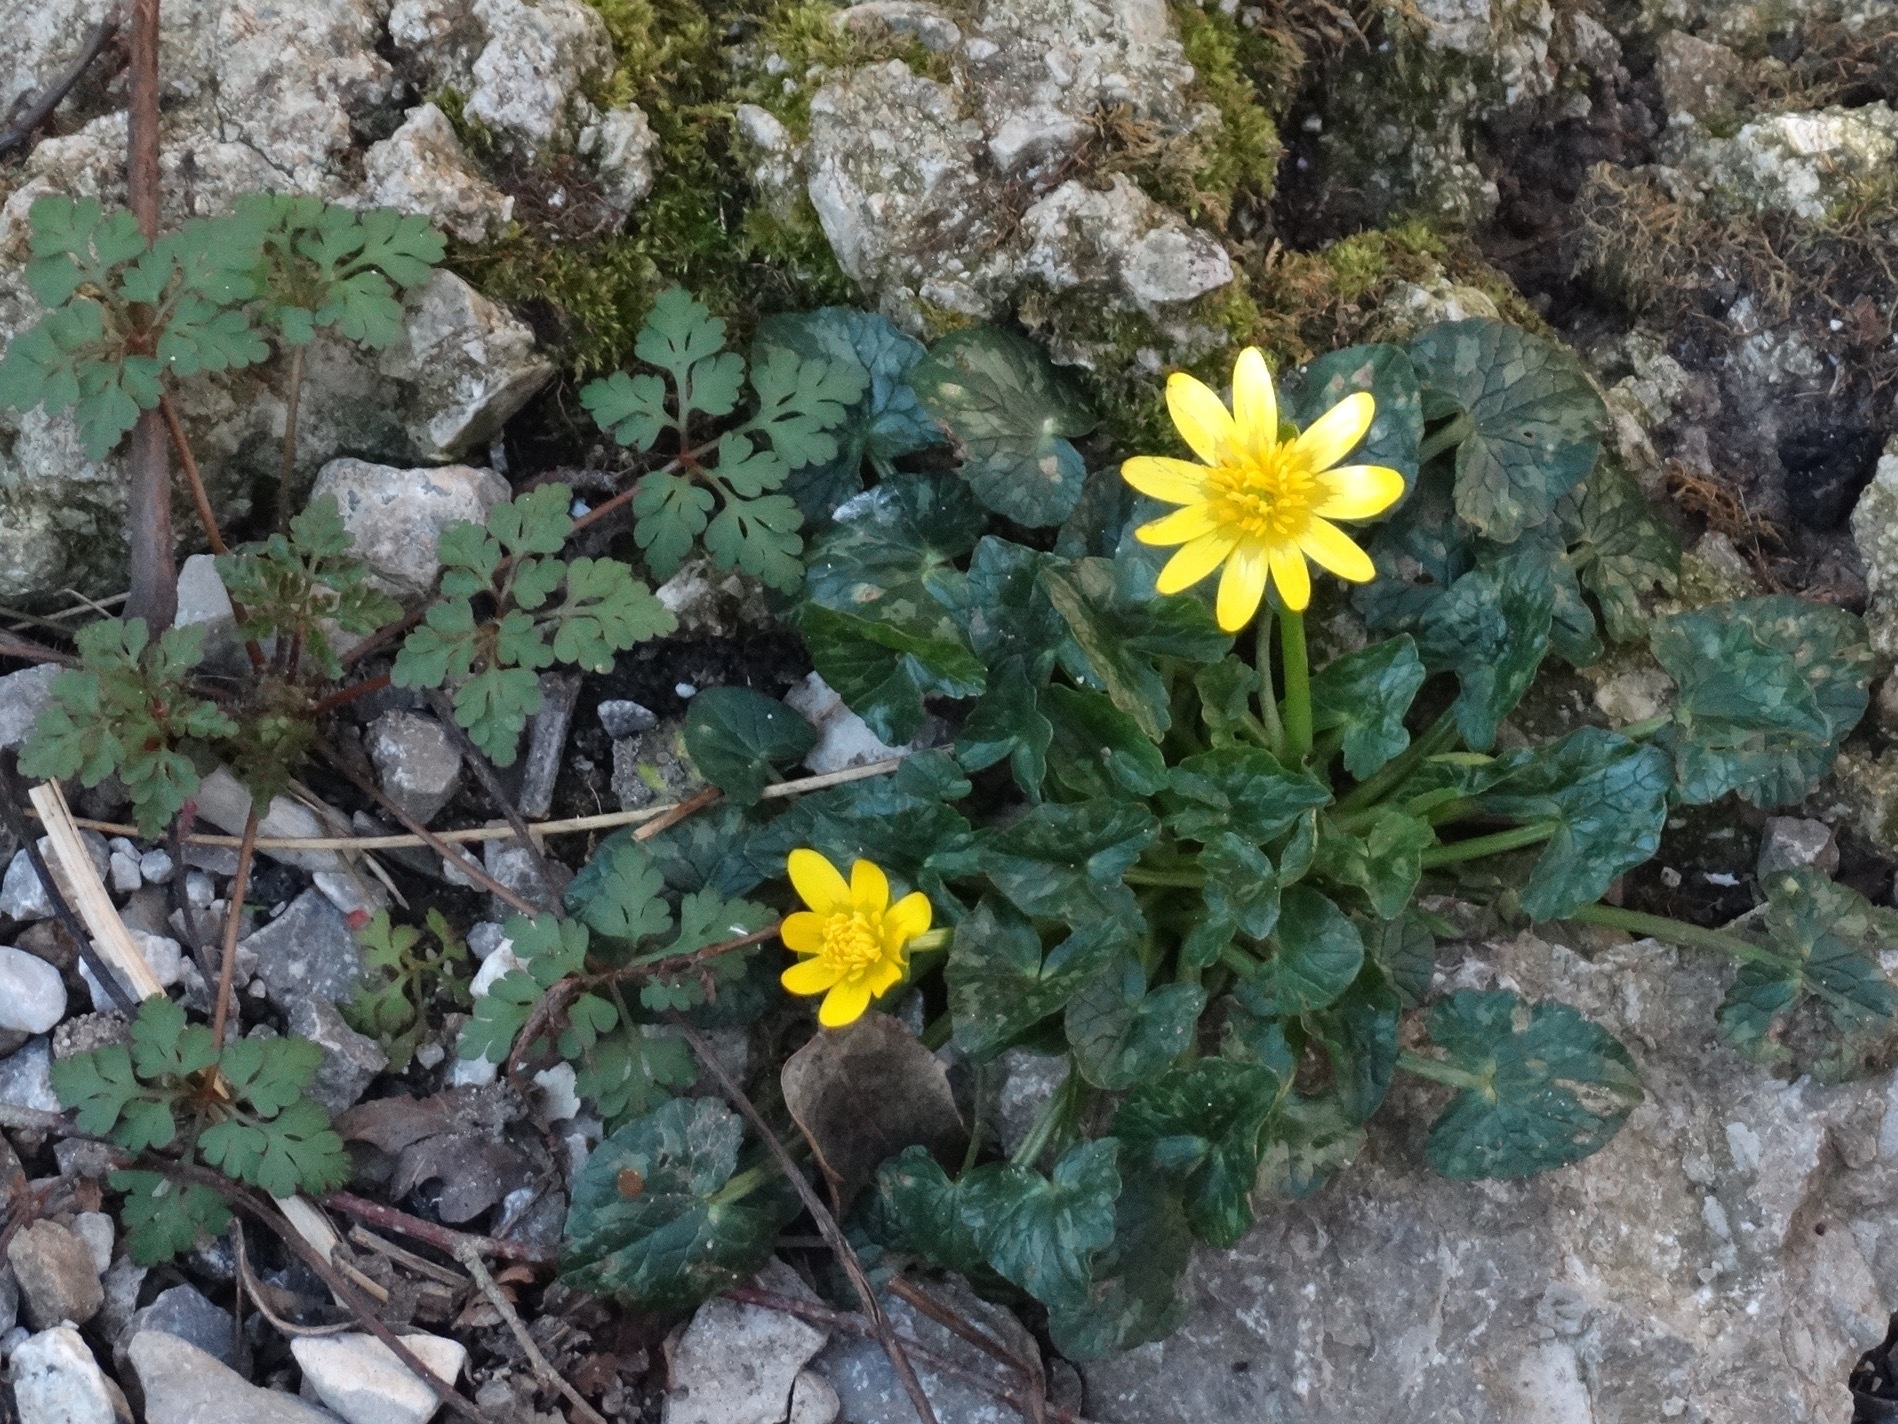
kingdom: Plantae
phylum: Tracheophyta
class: Magnoliopsida
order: Ranunculales
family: Ranunculaceae
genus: Ficaria
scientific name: Ficaria verna
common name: Lesser celandine
